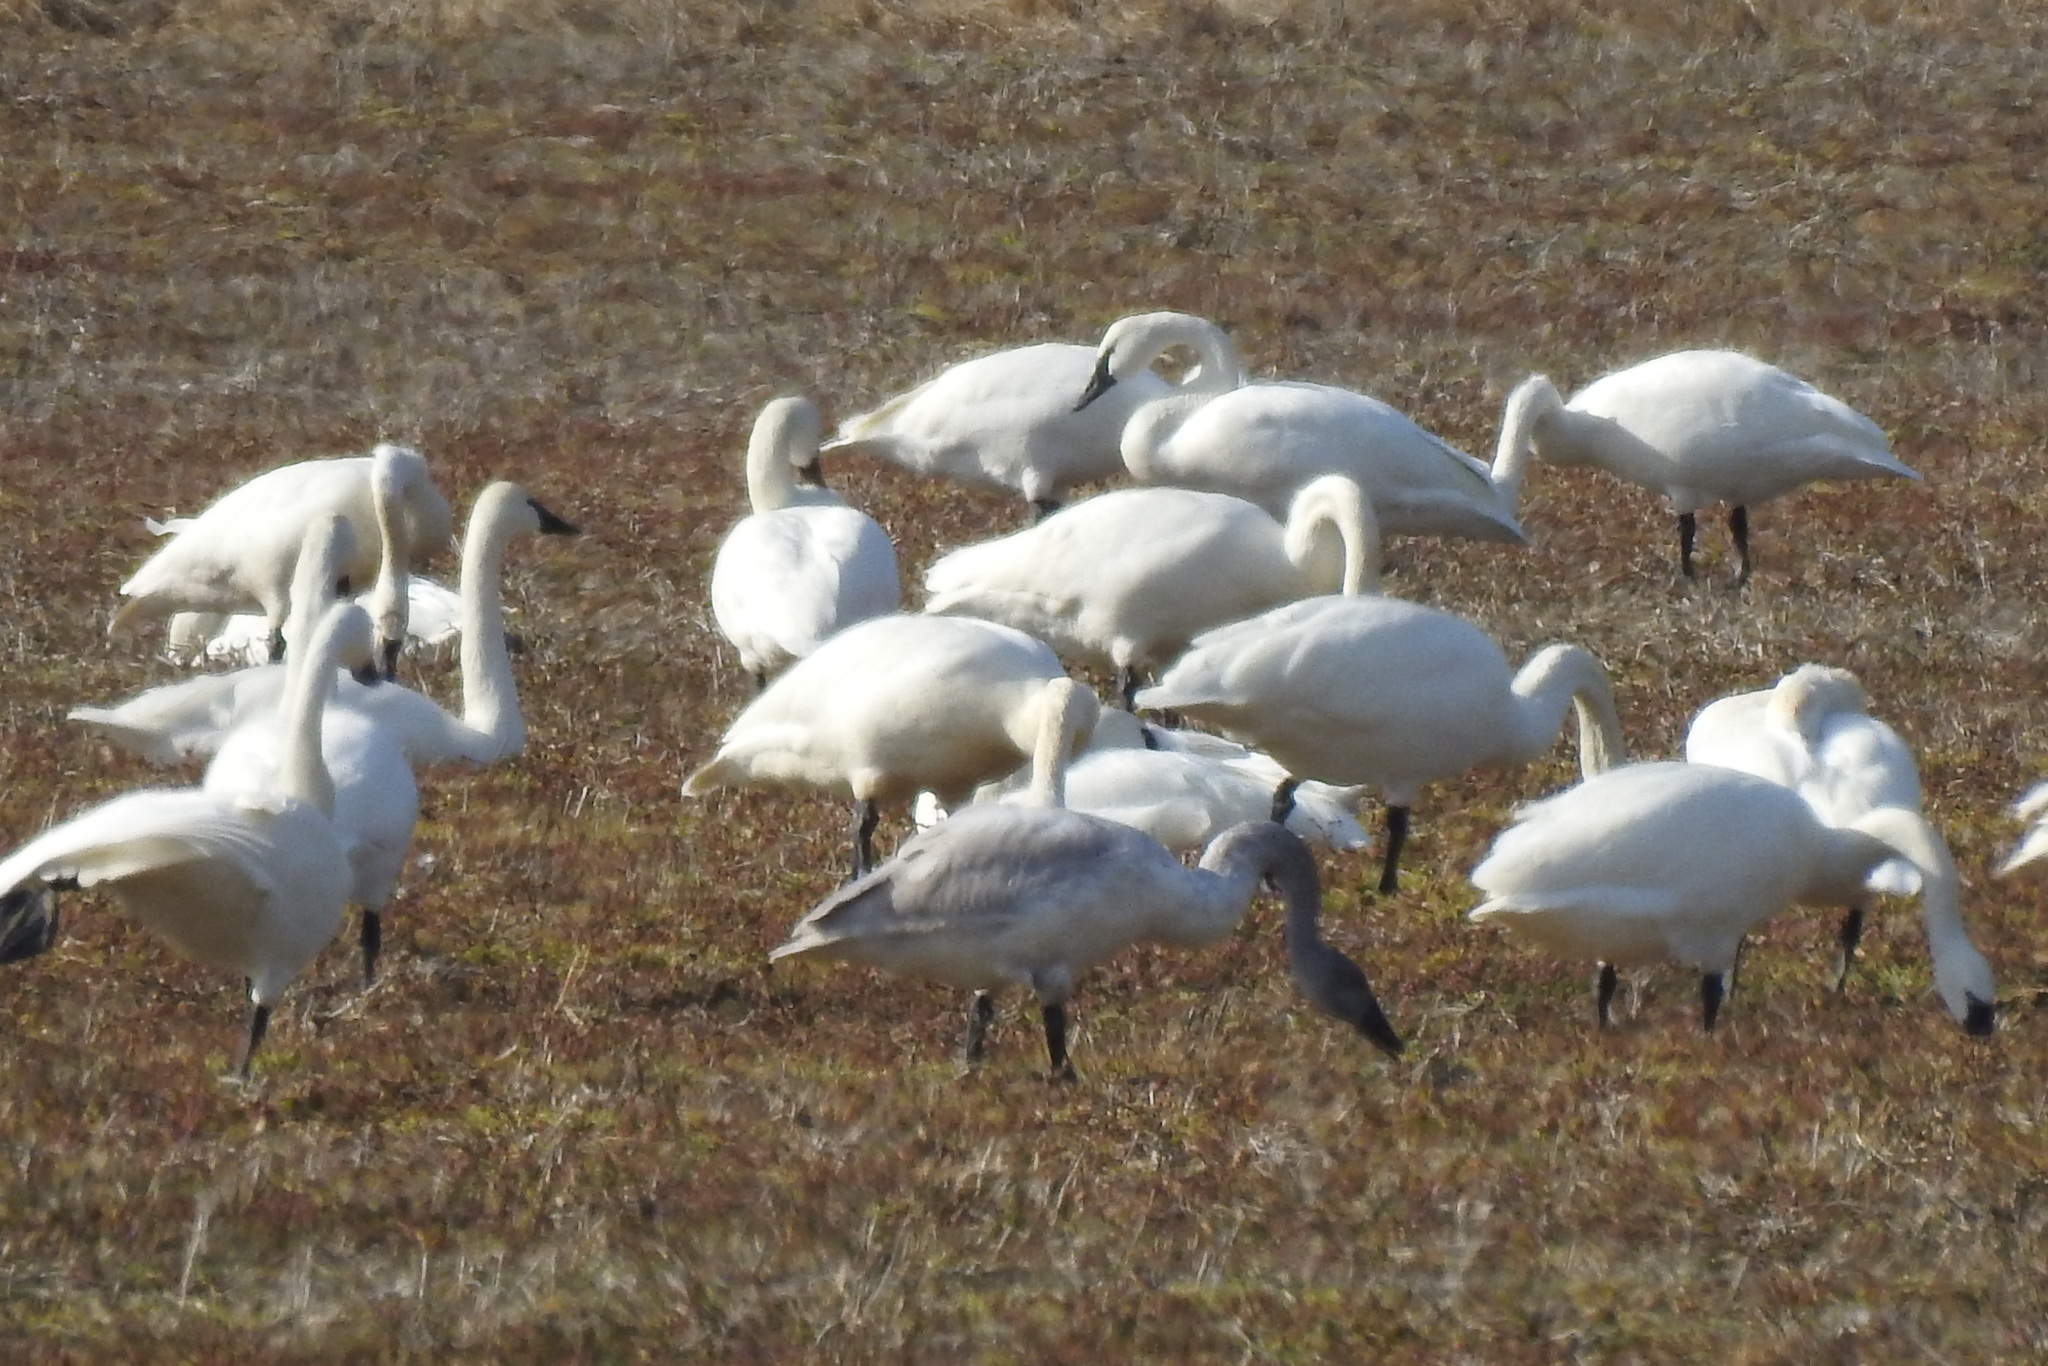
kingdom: Animalia
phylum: Chordata
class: Aves
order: Anseriformes
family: Anatidae
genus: Cygnus
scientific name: Cygnus columbianus
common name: Tundra swan
